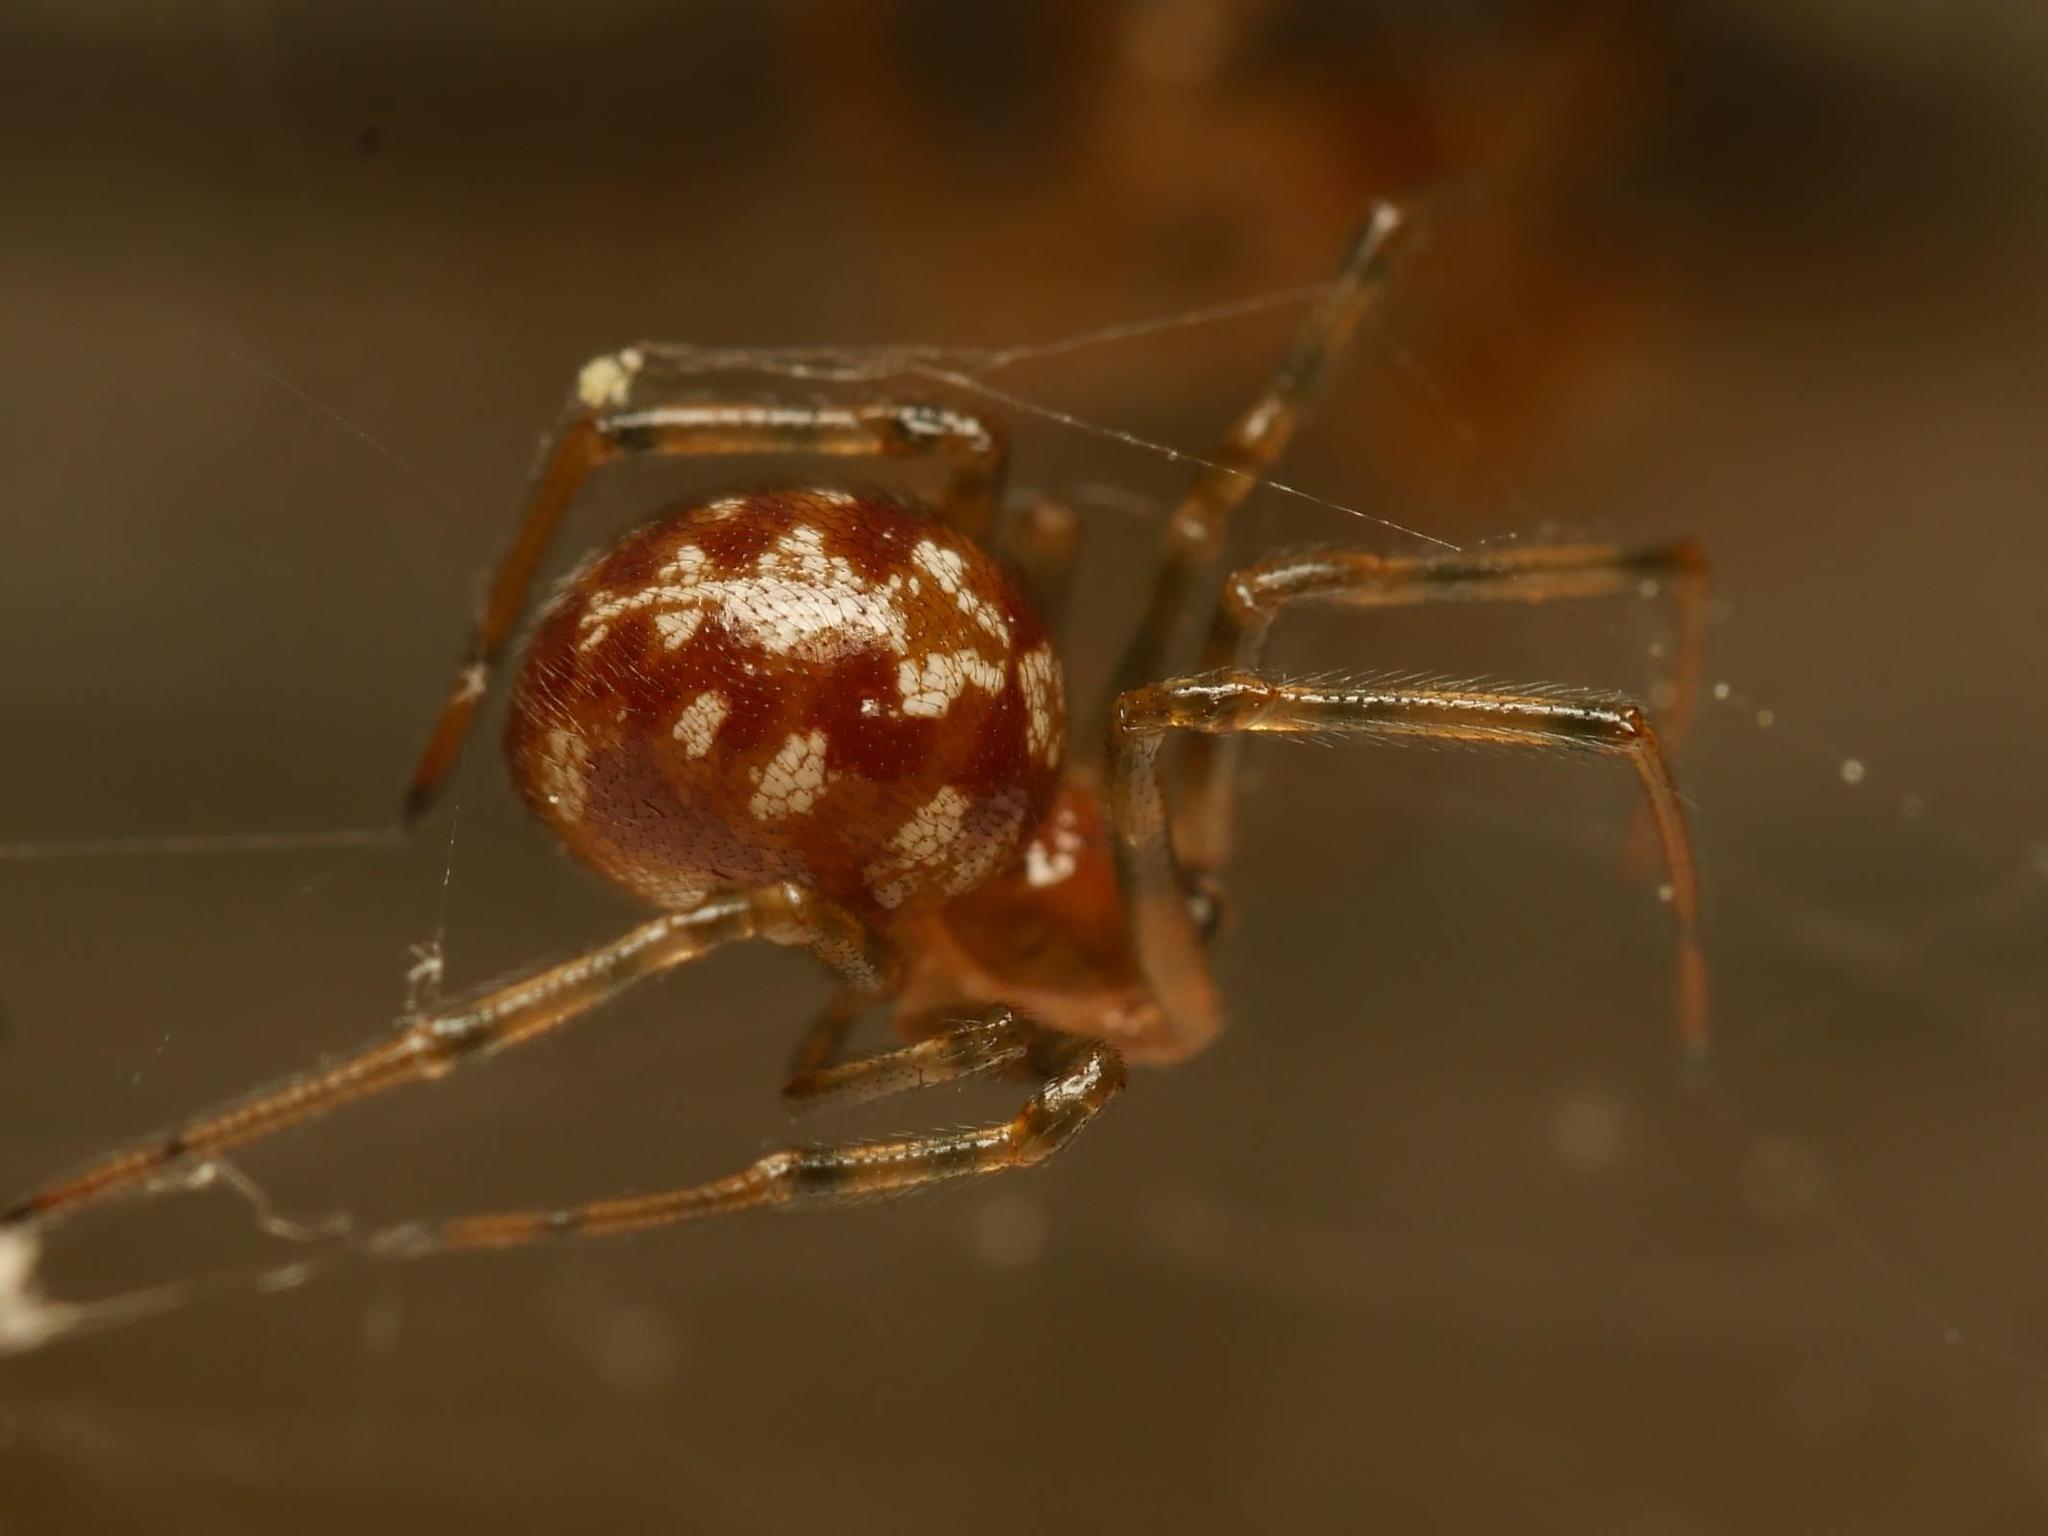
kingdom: Animalia
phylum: Arthropoda
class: Arachnida
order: Araneae
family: Theridiidae
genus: Steatoda
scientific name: Steatoda triangulosa
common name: Triangulate bud spider
